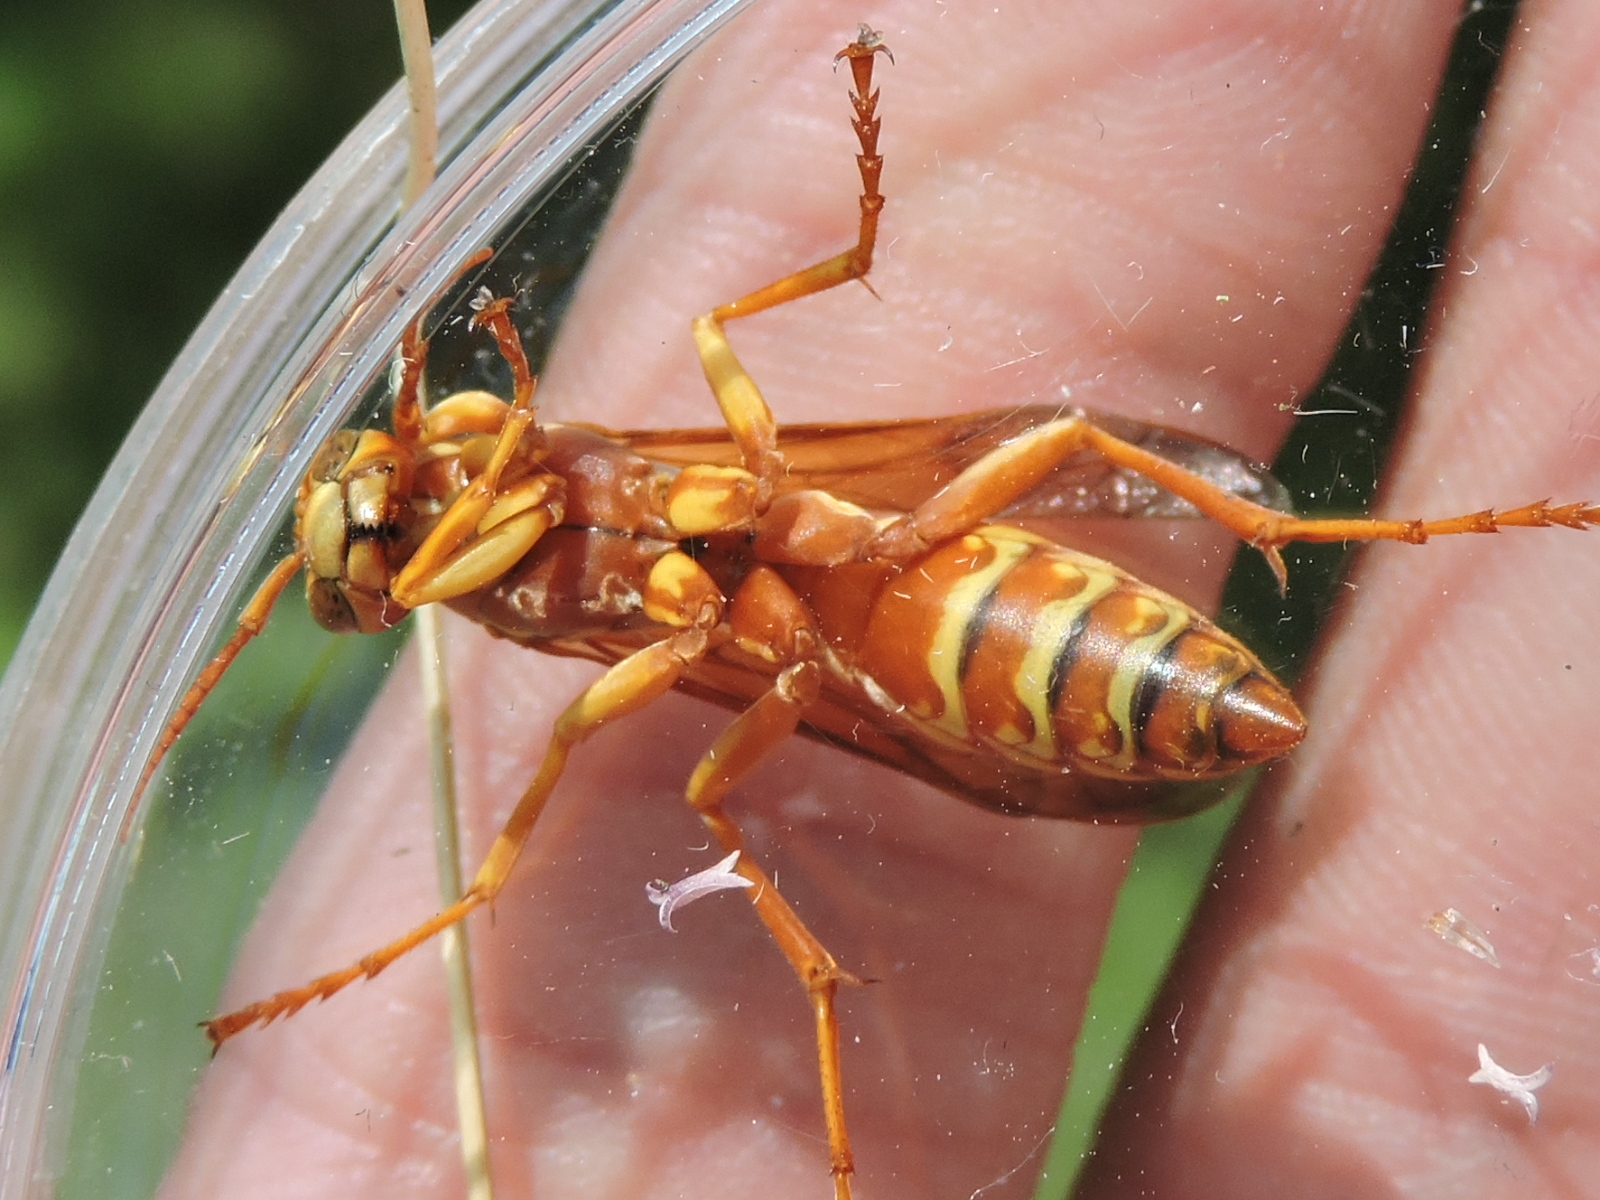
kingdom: Animalia
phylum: Arthropoda
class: Insecta
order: Hymenoptera
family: Eumenidae
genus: Polistes
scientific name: Polistes apachus
